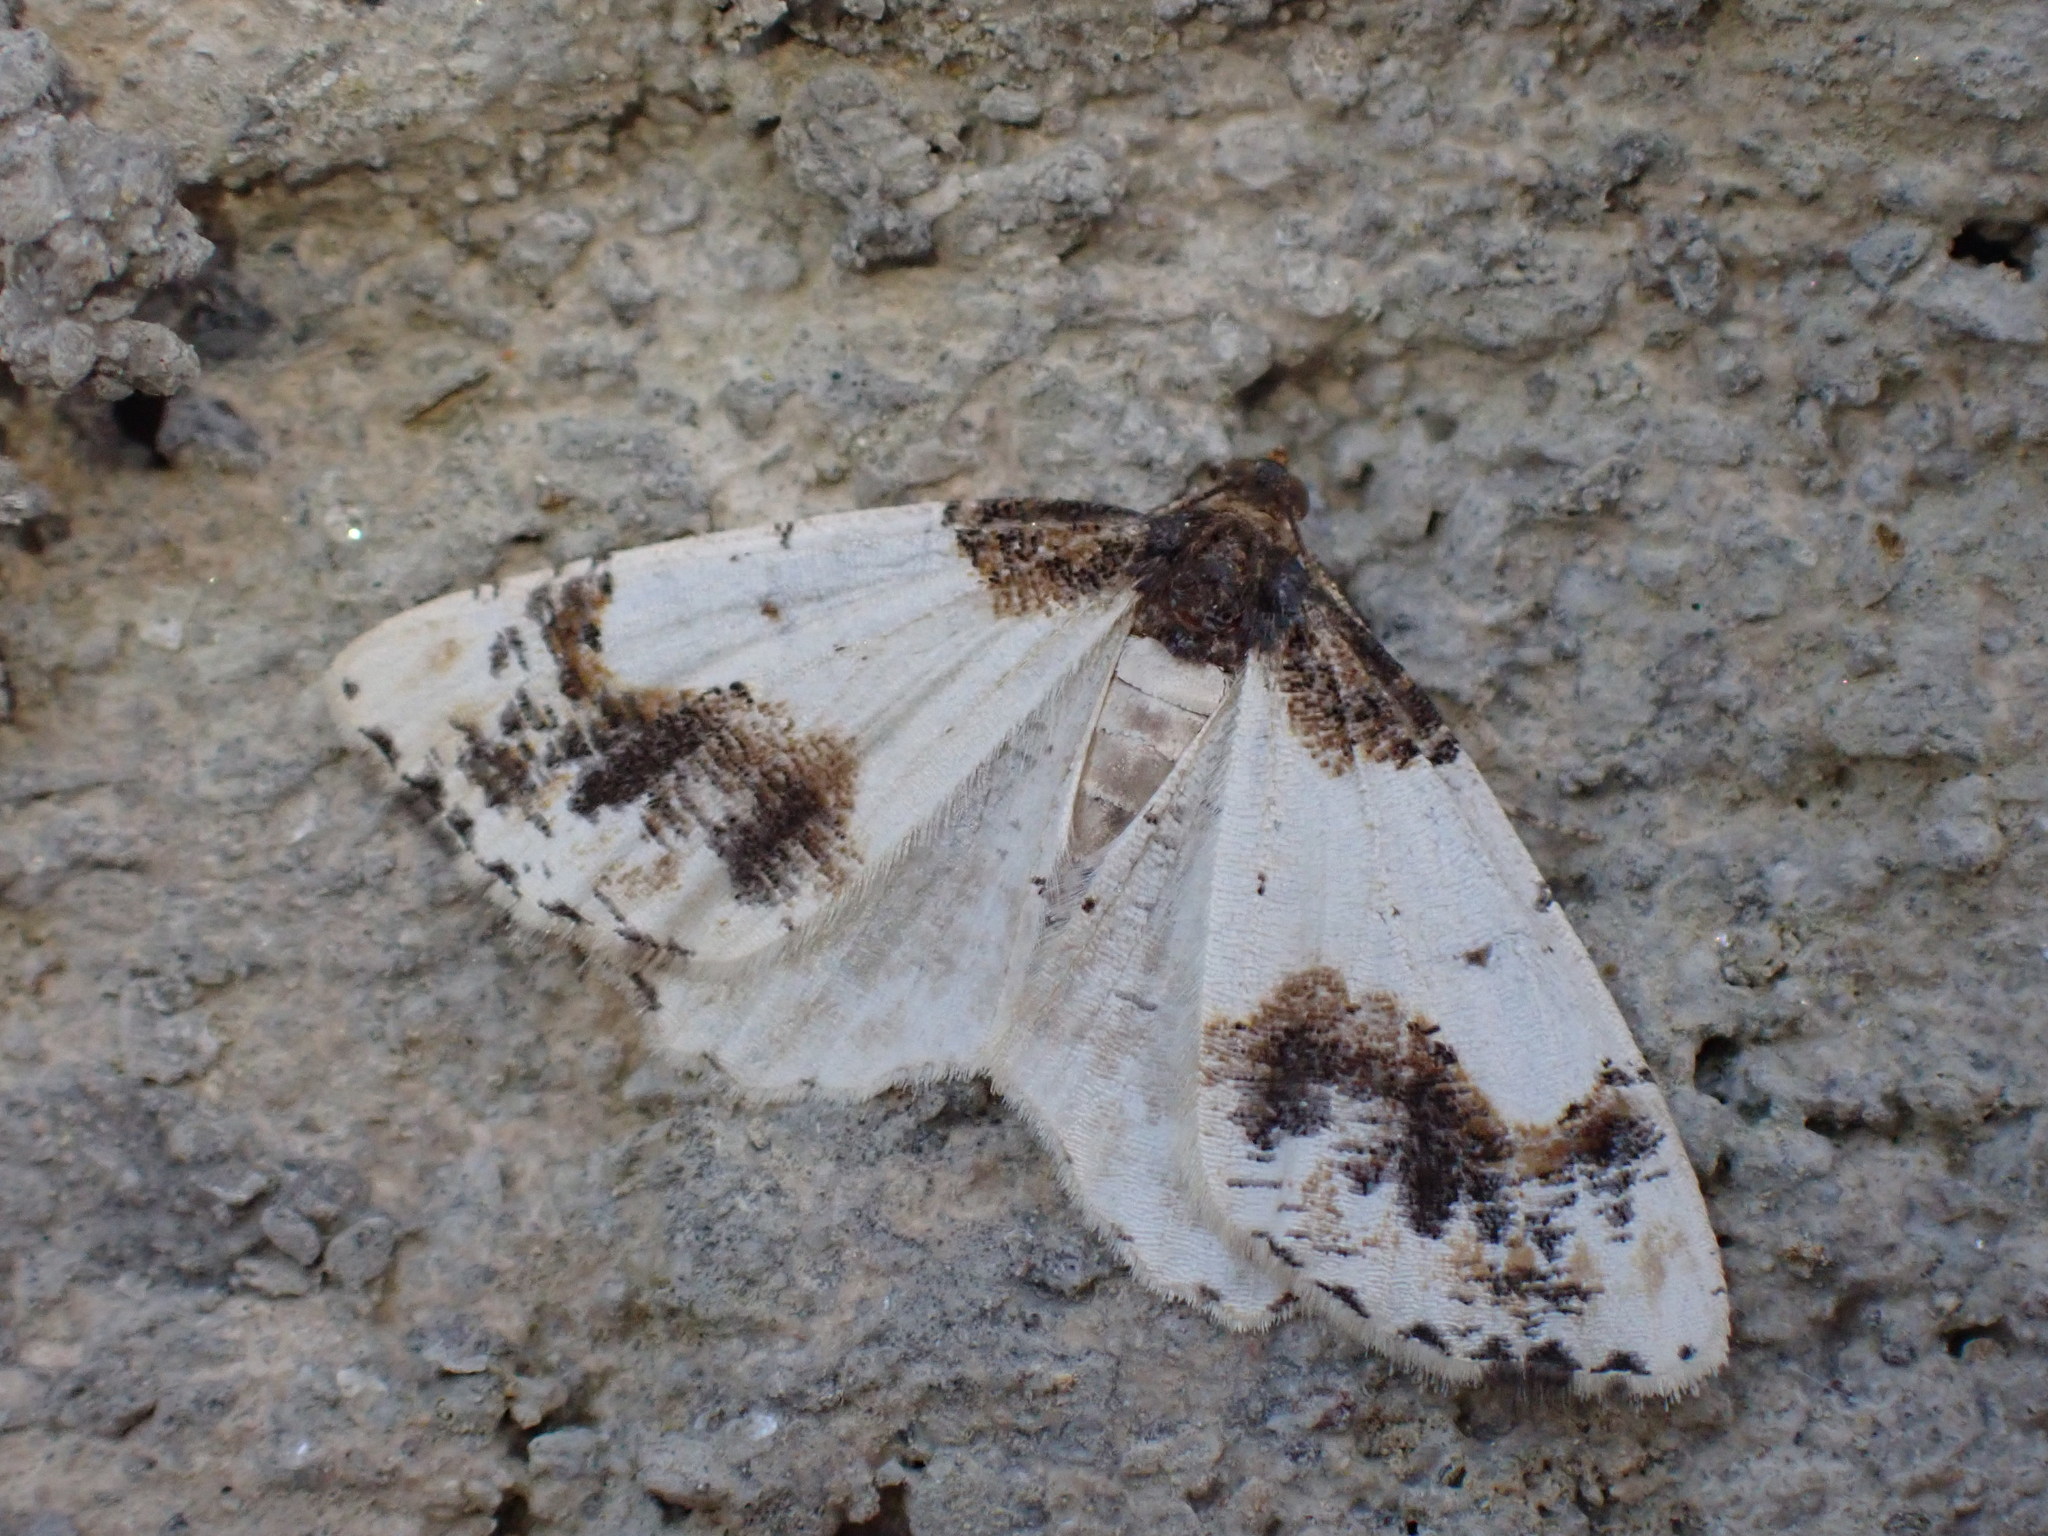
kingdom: Animalia
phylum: Arthropoda
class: Insecta
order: Lepidoptera
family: Geometridae
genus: Ligdia
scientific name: Ligdia adustata
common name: Scorched carpet
